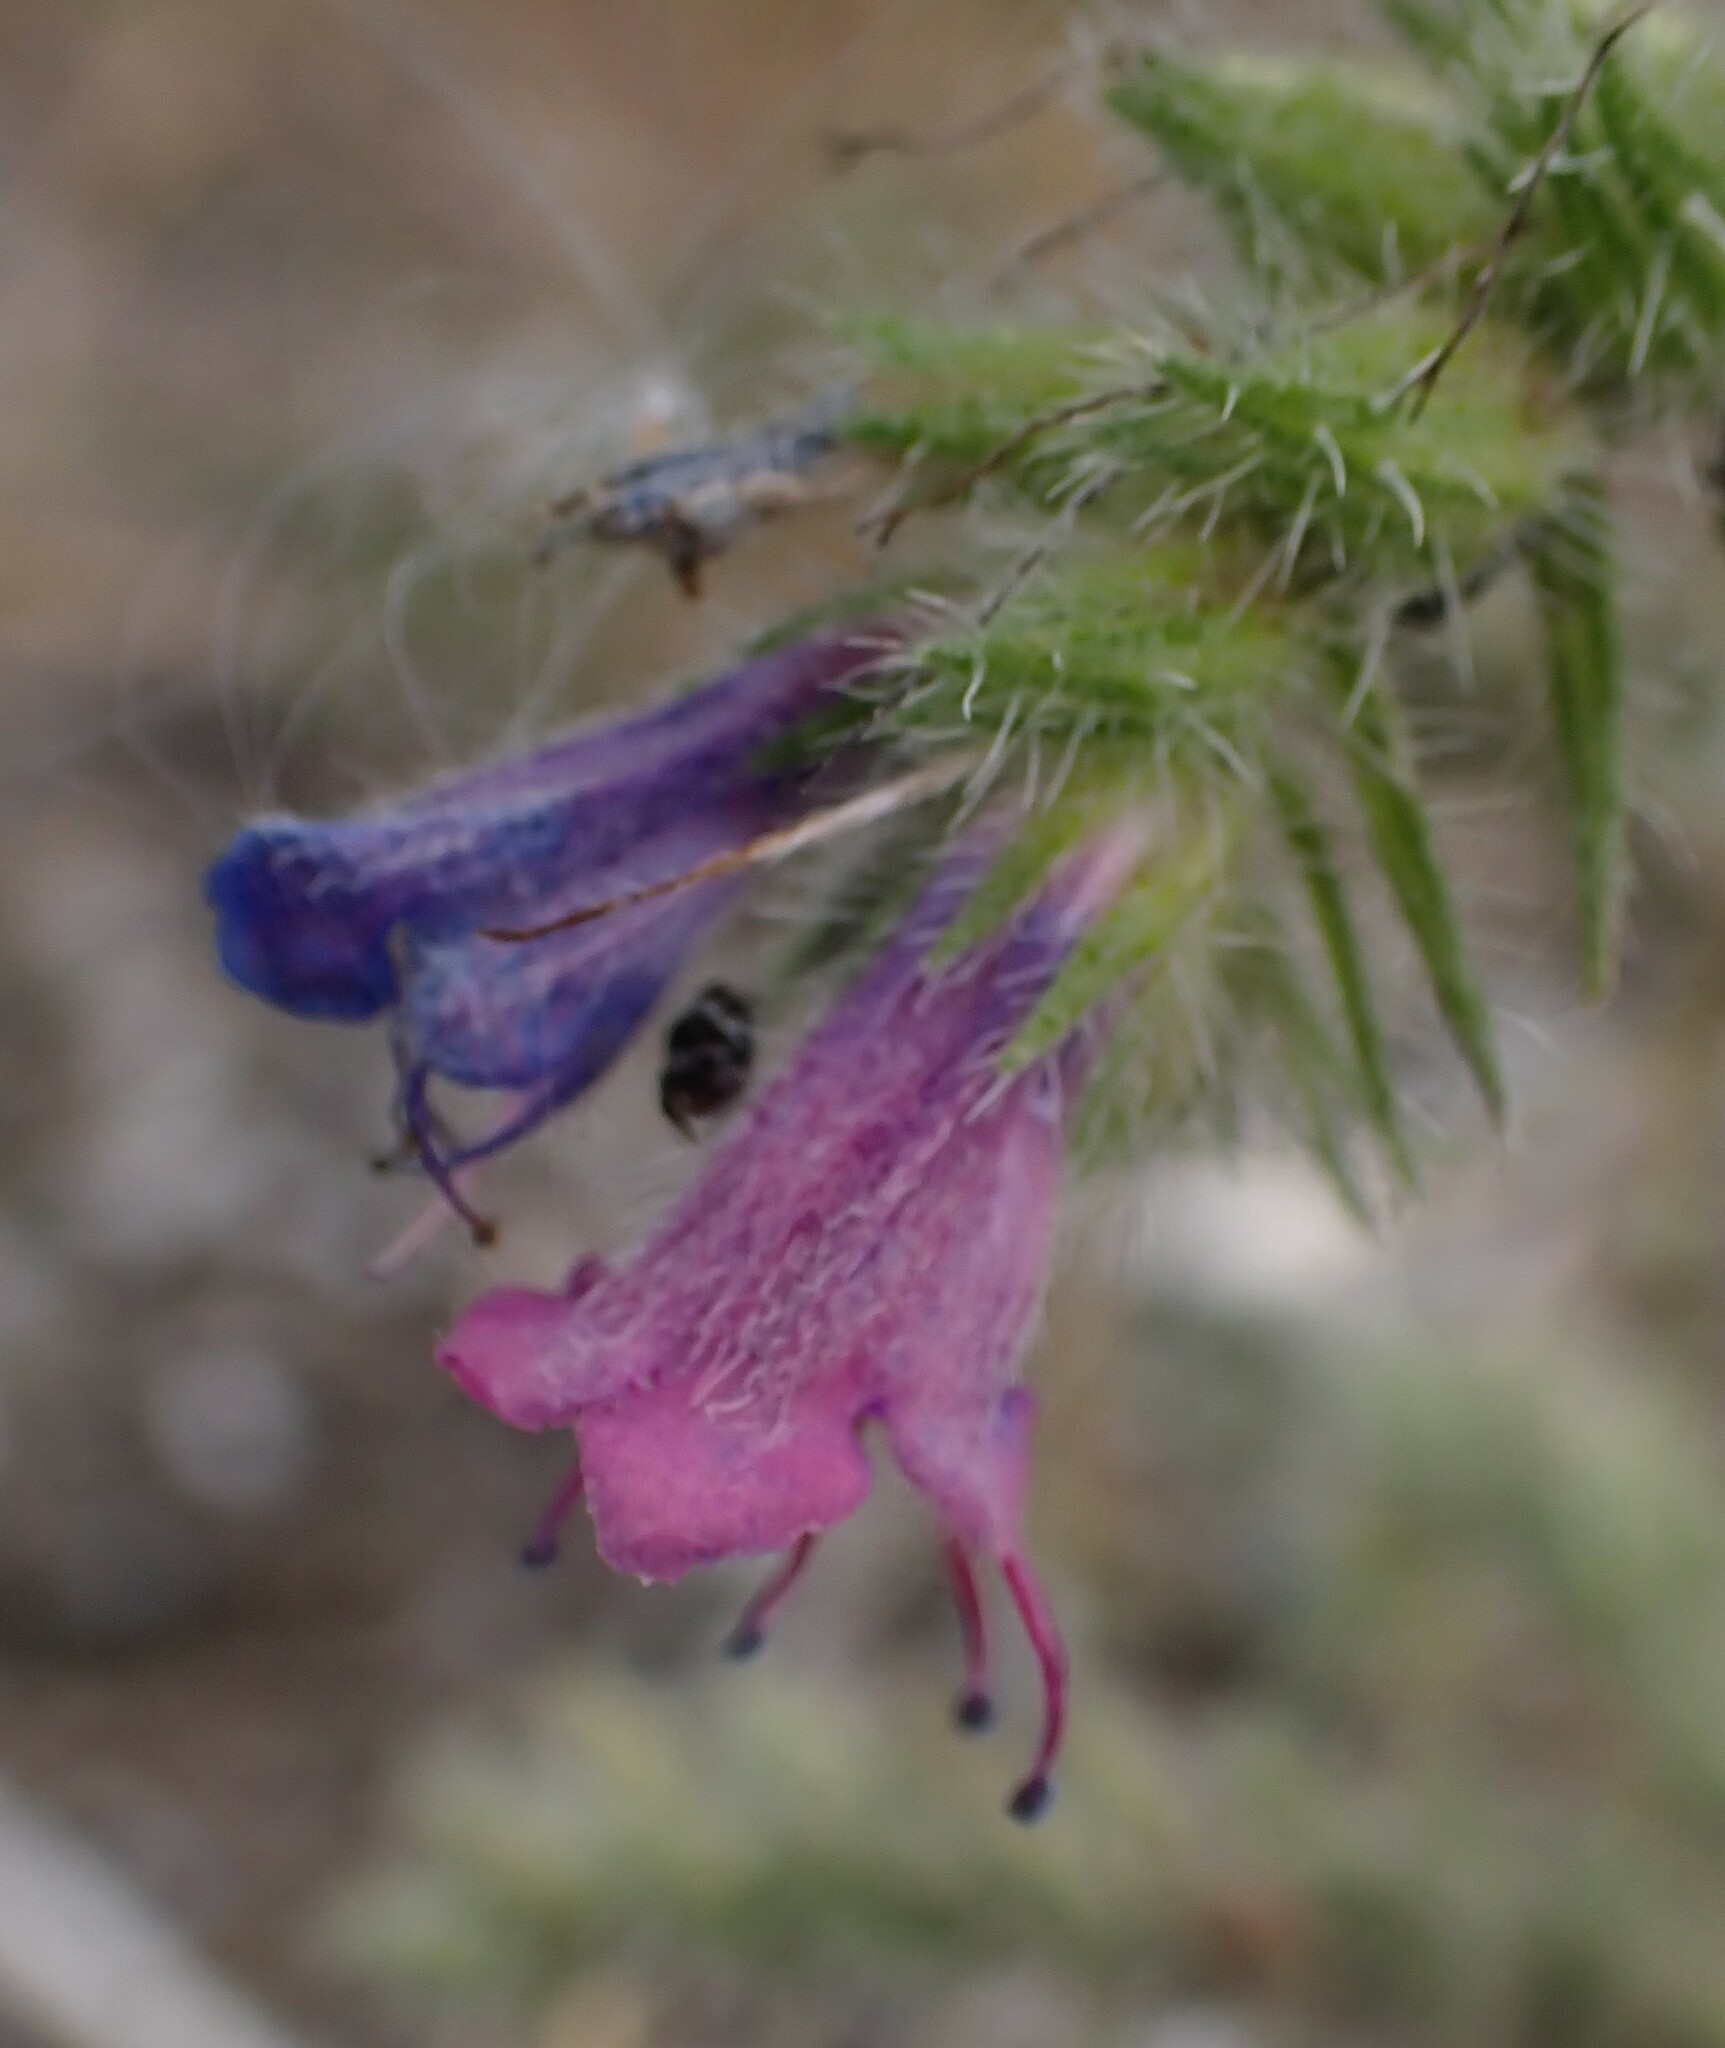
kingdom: Plantae
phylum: Tracheophyta
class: Magnoliopsida
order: Boraginales
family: Boraginaceae
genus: Echium
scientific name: Echium vulgare
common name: Common viper's bugloss
